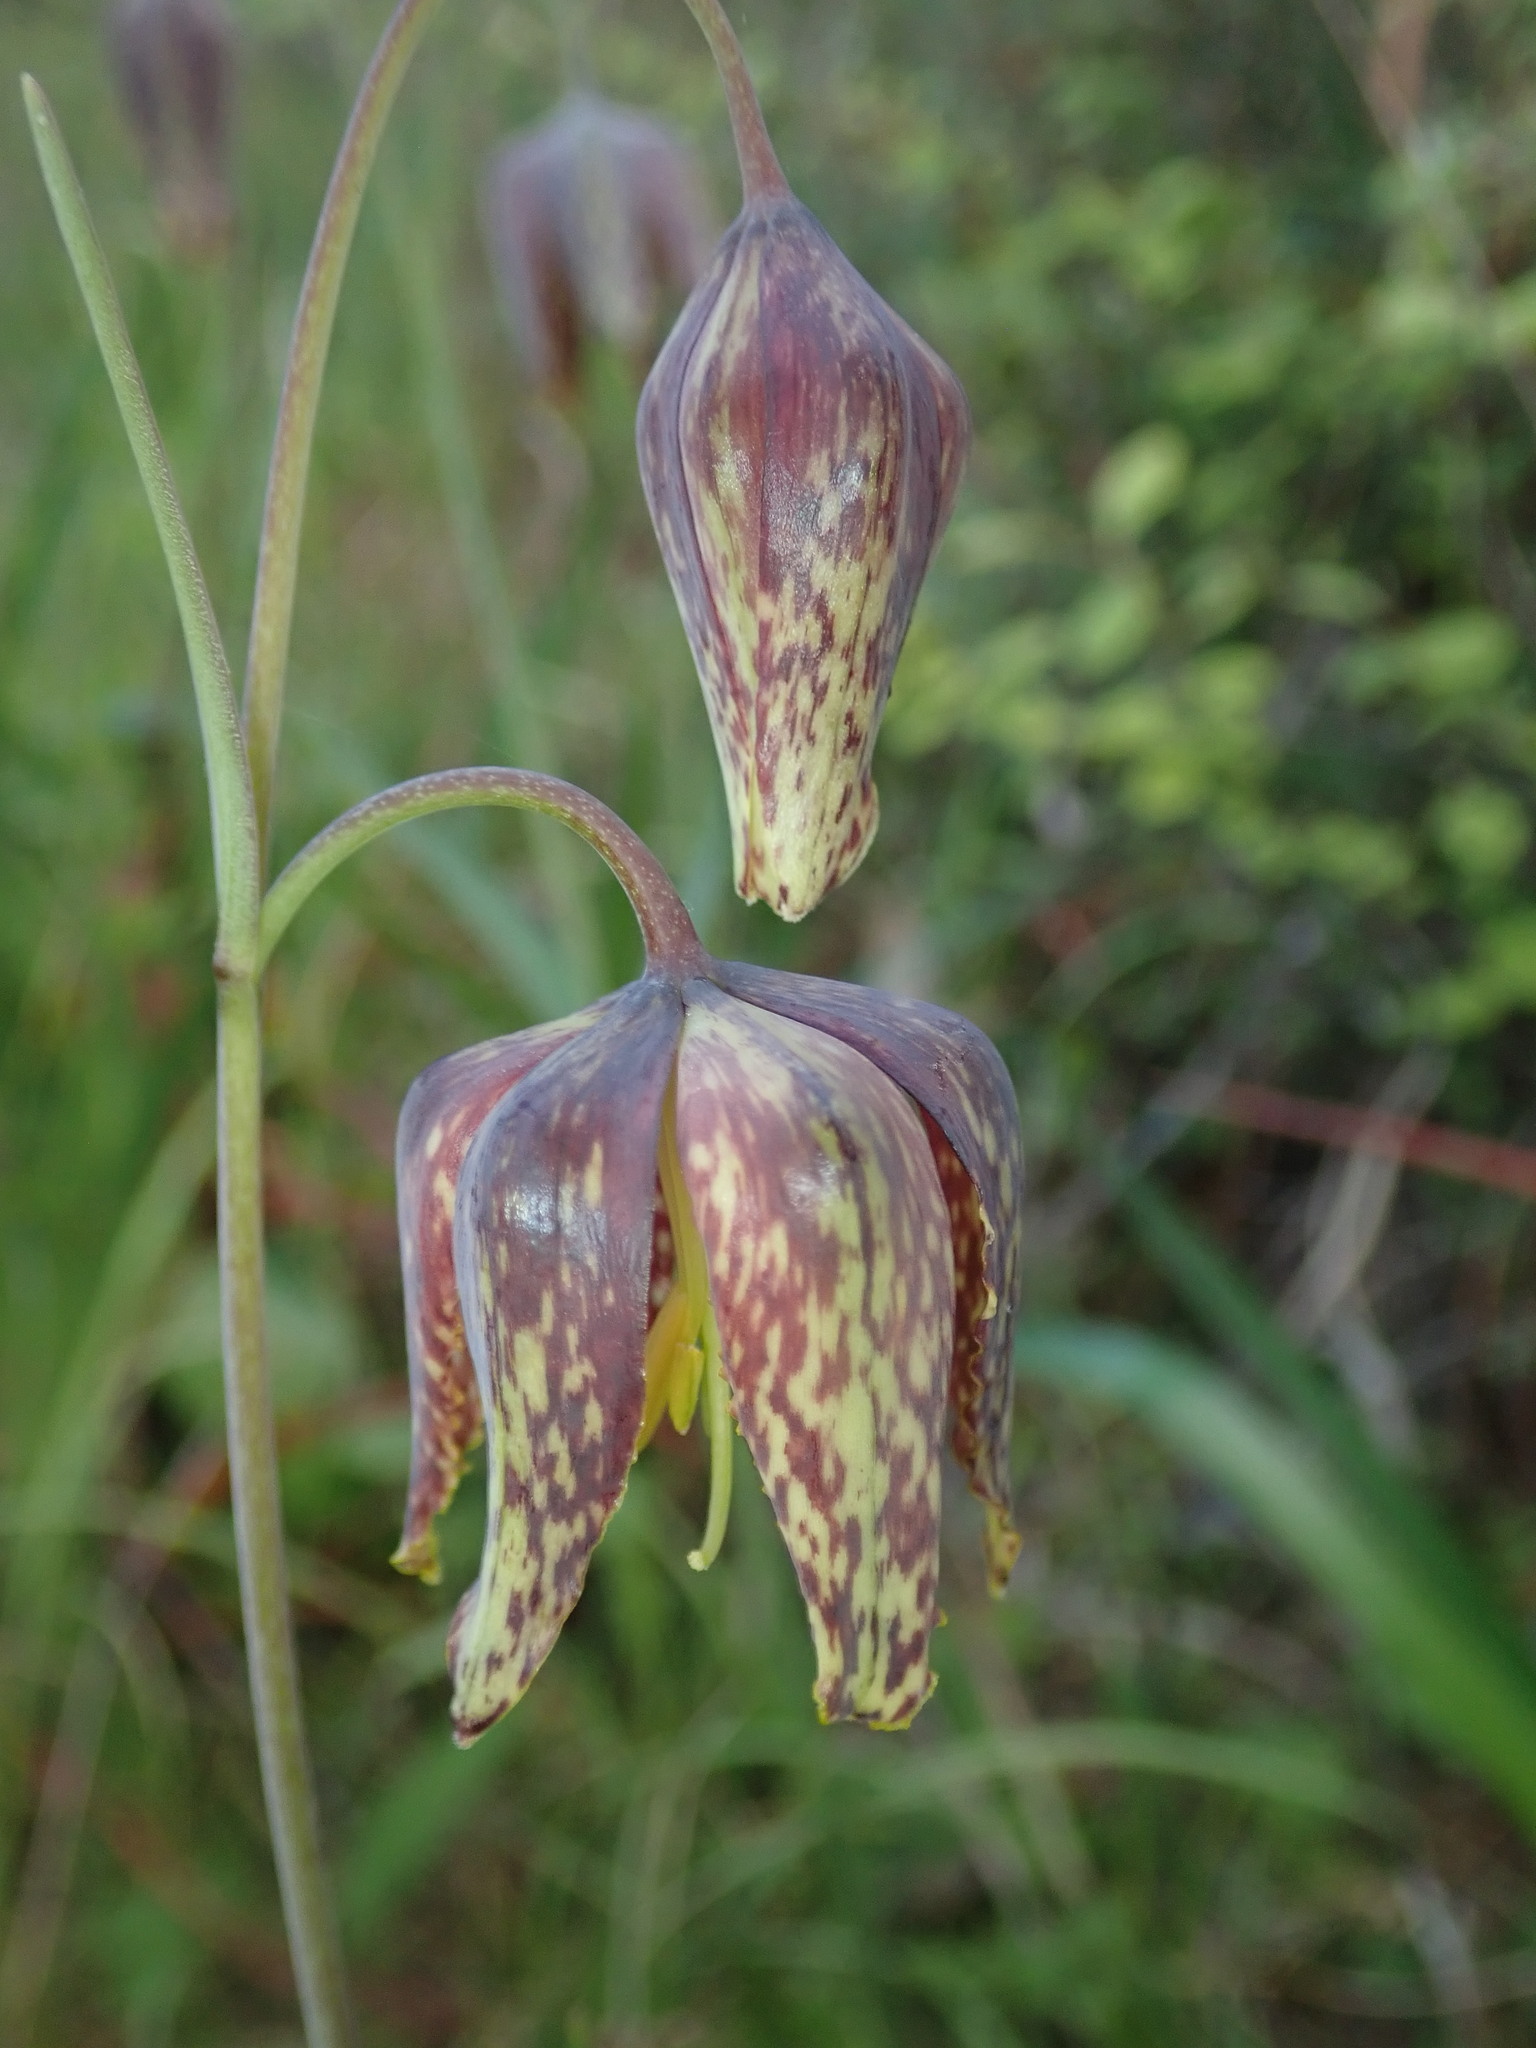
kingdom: Plantae
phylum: Tracheophyta
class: Liliopsida
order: Liliales
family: Liliaceae
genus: Fritillaria
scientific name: Fritillaria affinis
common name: Ojai fritillary
